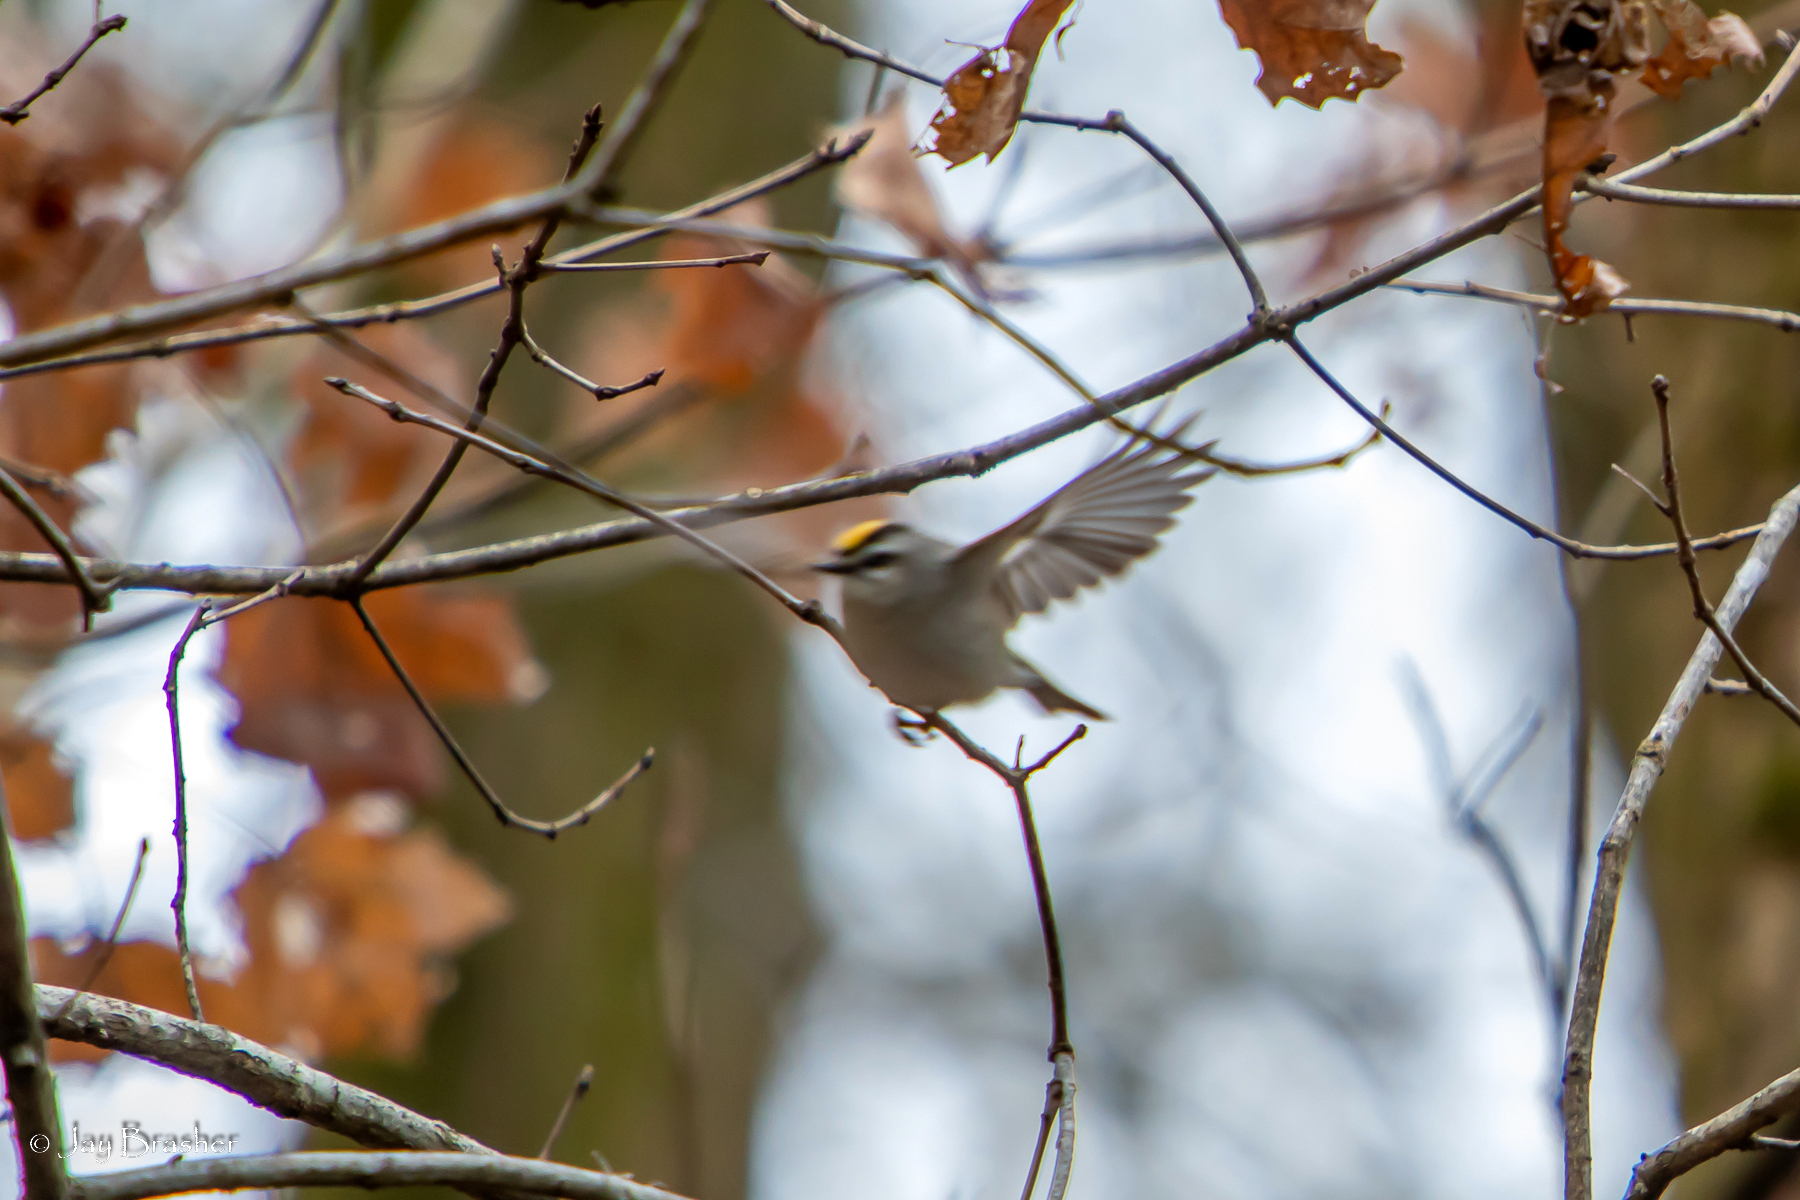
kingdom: Animalia
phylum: Chordata
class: Aves
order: Passeriformes
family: Regulidae
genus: Regulus
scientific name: Regulus satrapa
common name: Golden-crowned kinglet
